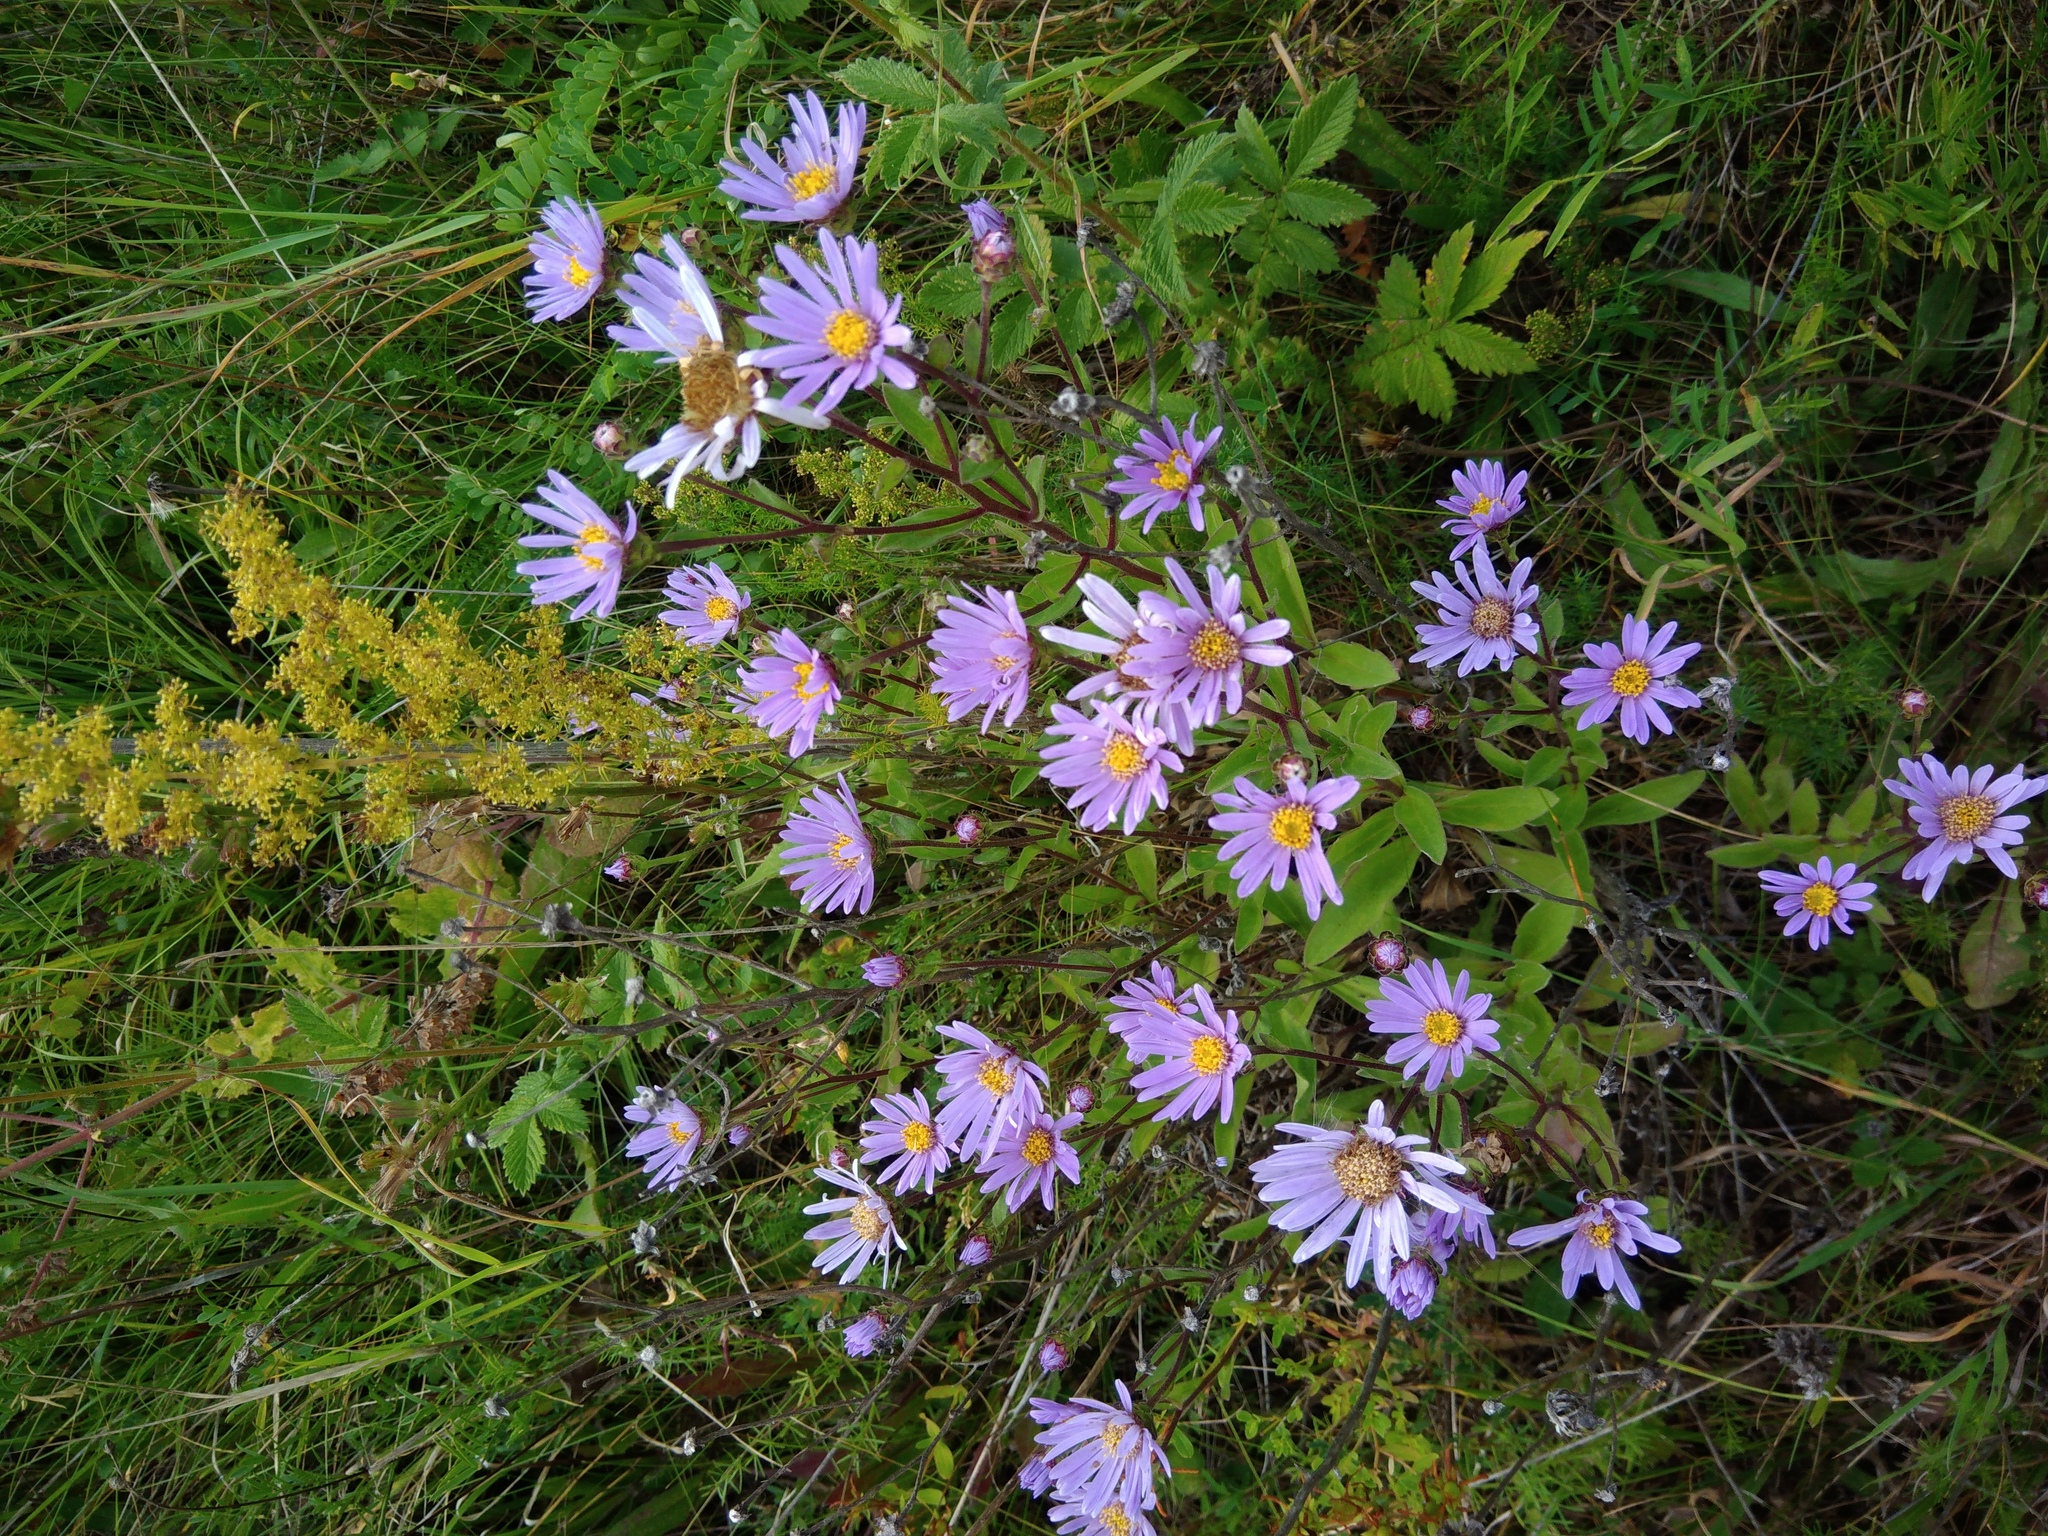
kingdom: Plantae
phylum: Tracheophyta
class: Magnoliopsida
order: Asterales
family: Asteraceae
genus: Aster
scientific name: Aster amellus
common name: European michaelmas daisy
